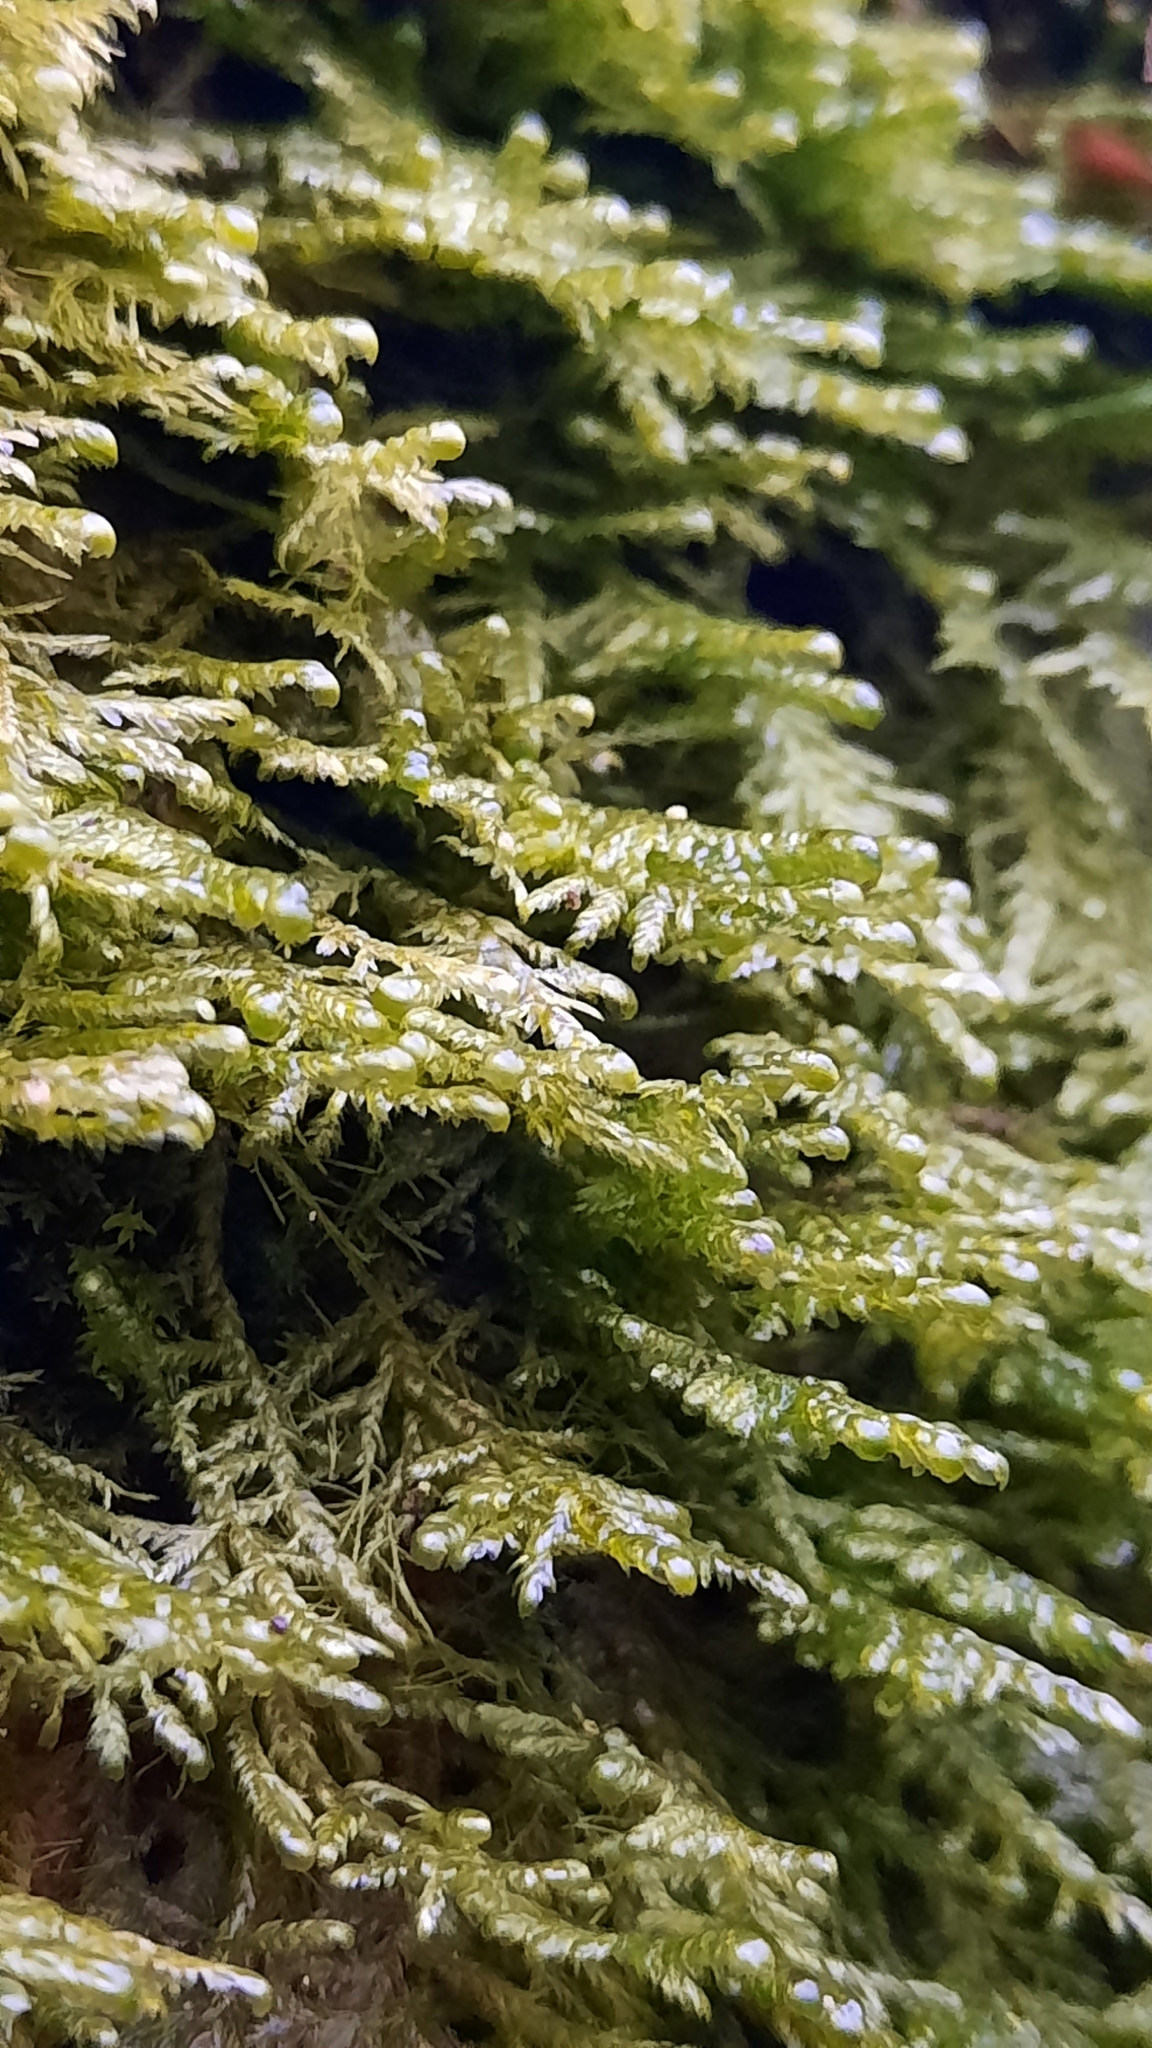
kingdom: Plantae
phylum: Bryophyta
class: Bryopsida
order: Hypnales
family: Neckeraceae
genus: Alleniella
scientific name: Alleniella complanata
